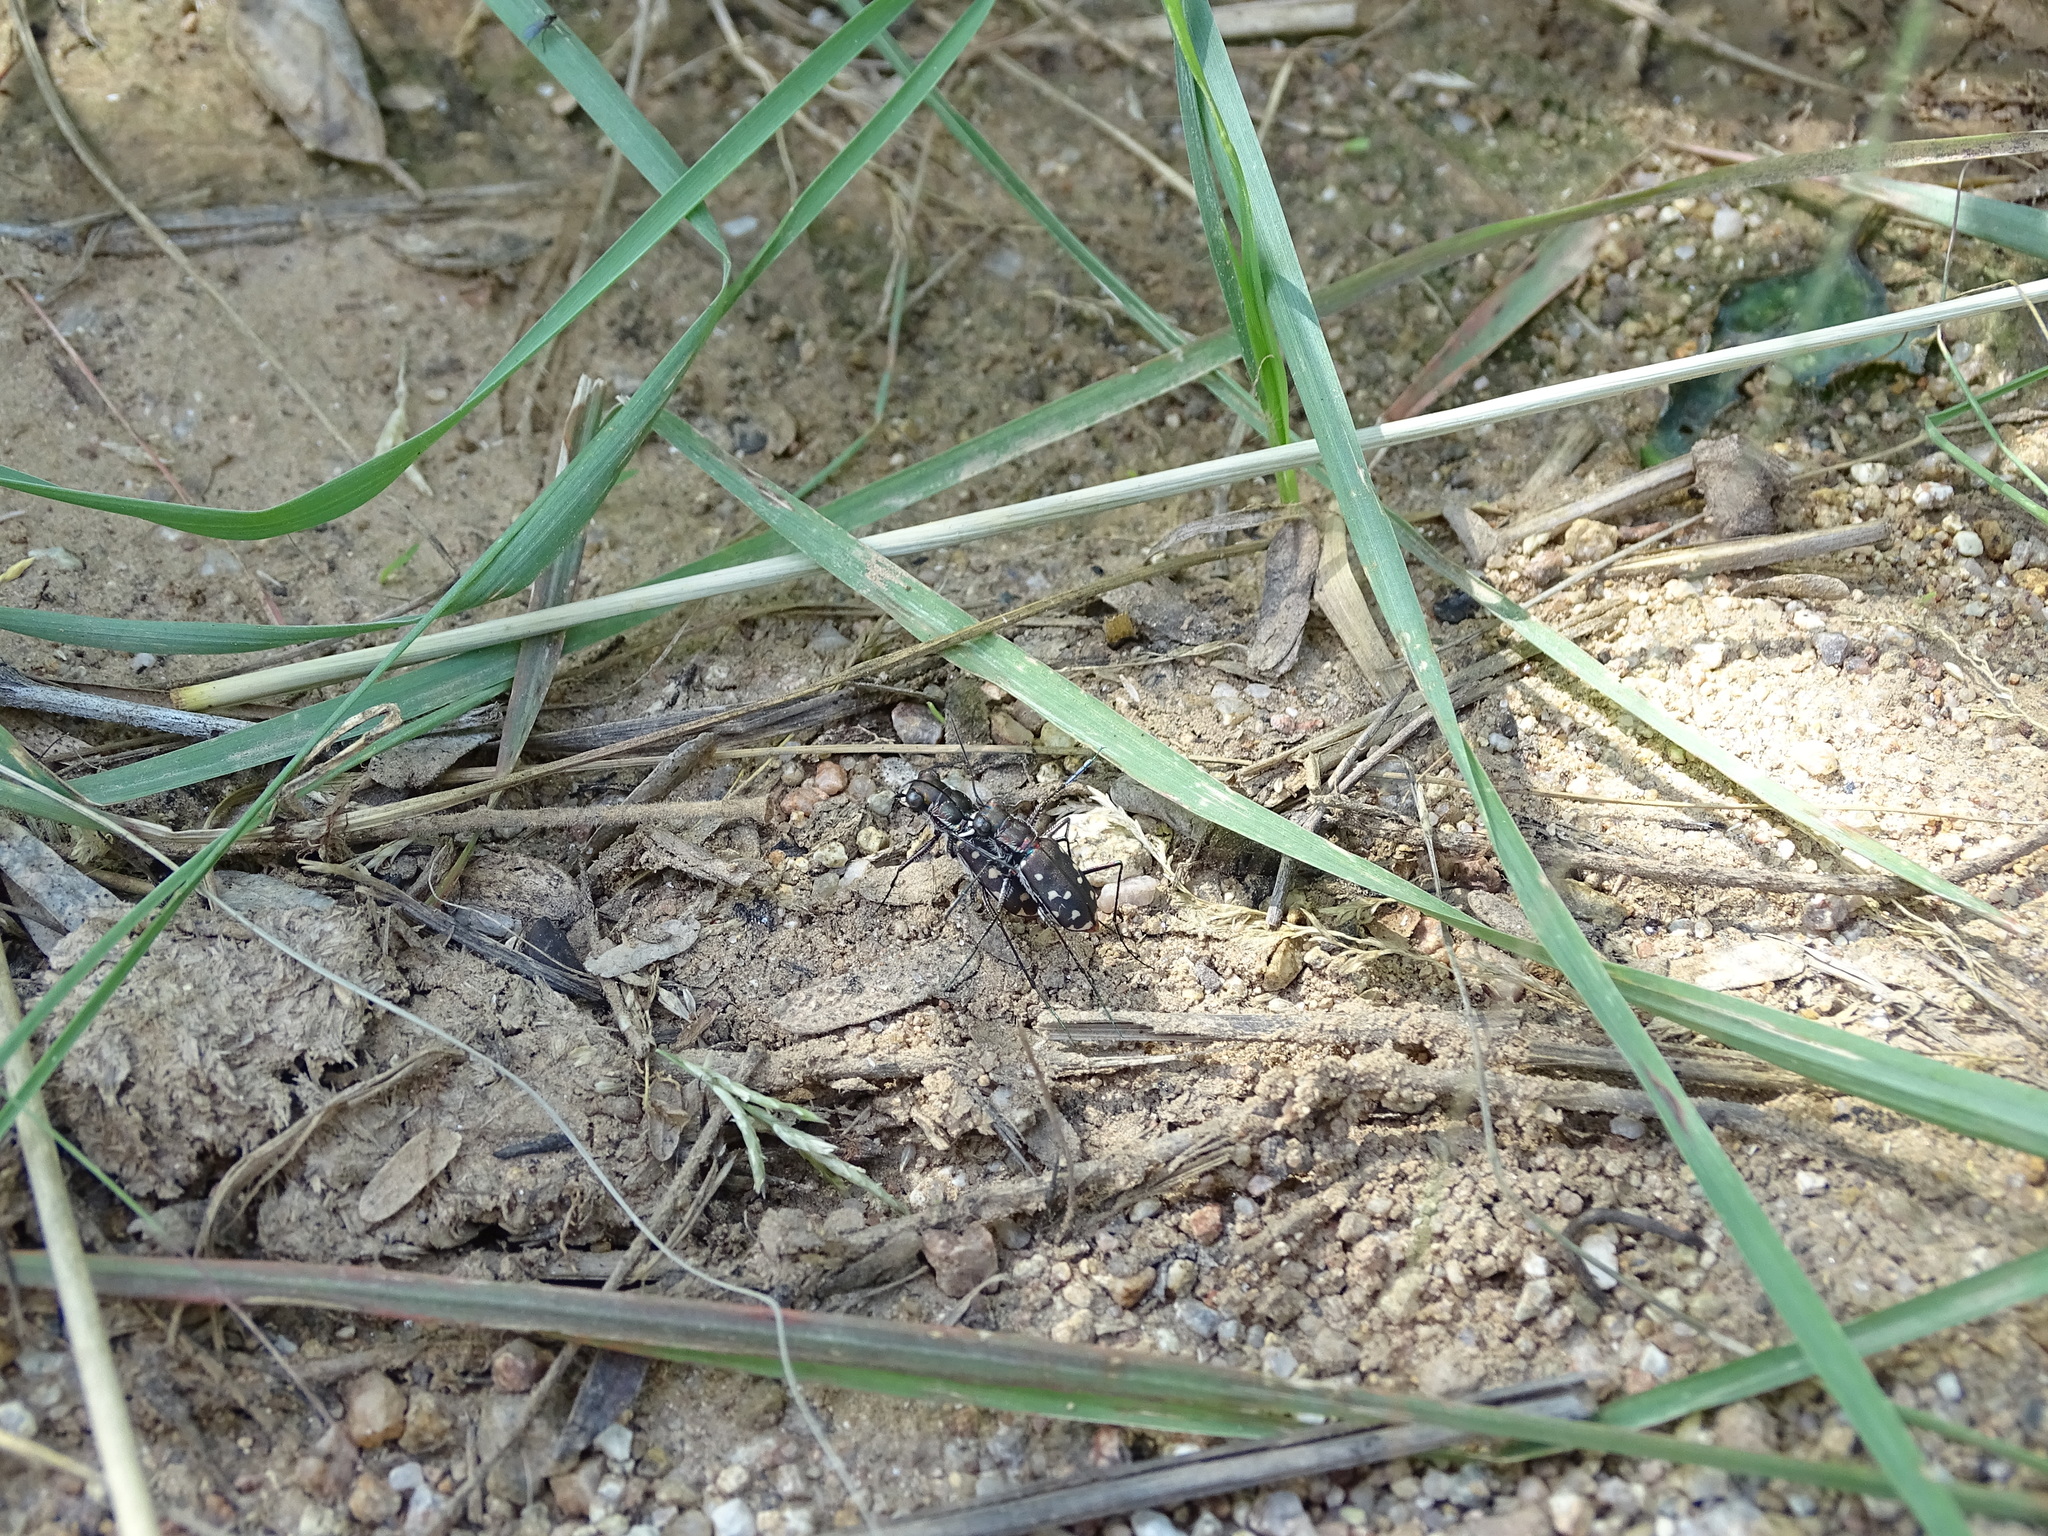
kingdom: Animalia
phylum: Arthropoda
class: Insecta
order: Coleoptera
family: Carabidae
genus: Cicindela
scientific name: Cicindela sedecimpunctata
